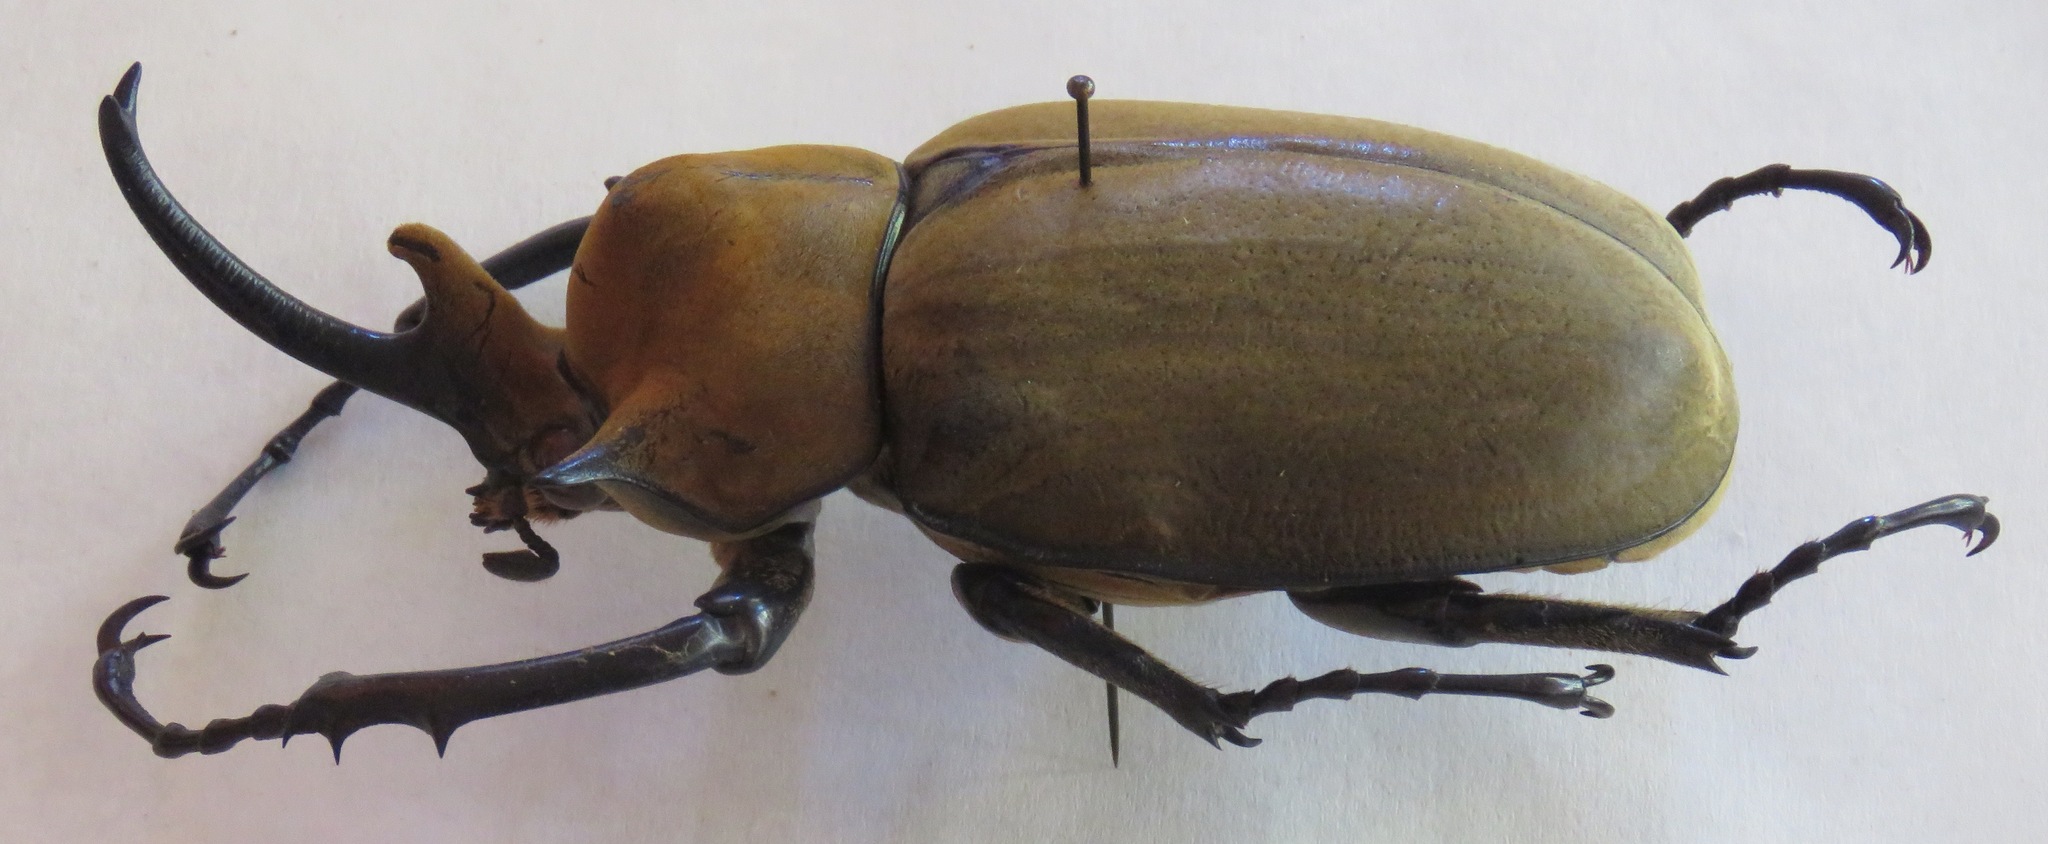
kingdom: Animalia
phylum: Arthropoda
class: Insecta
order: Coleoptera
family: Scarabaeidae
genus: Megasoma
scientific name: Megasoma elephas
